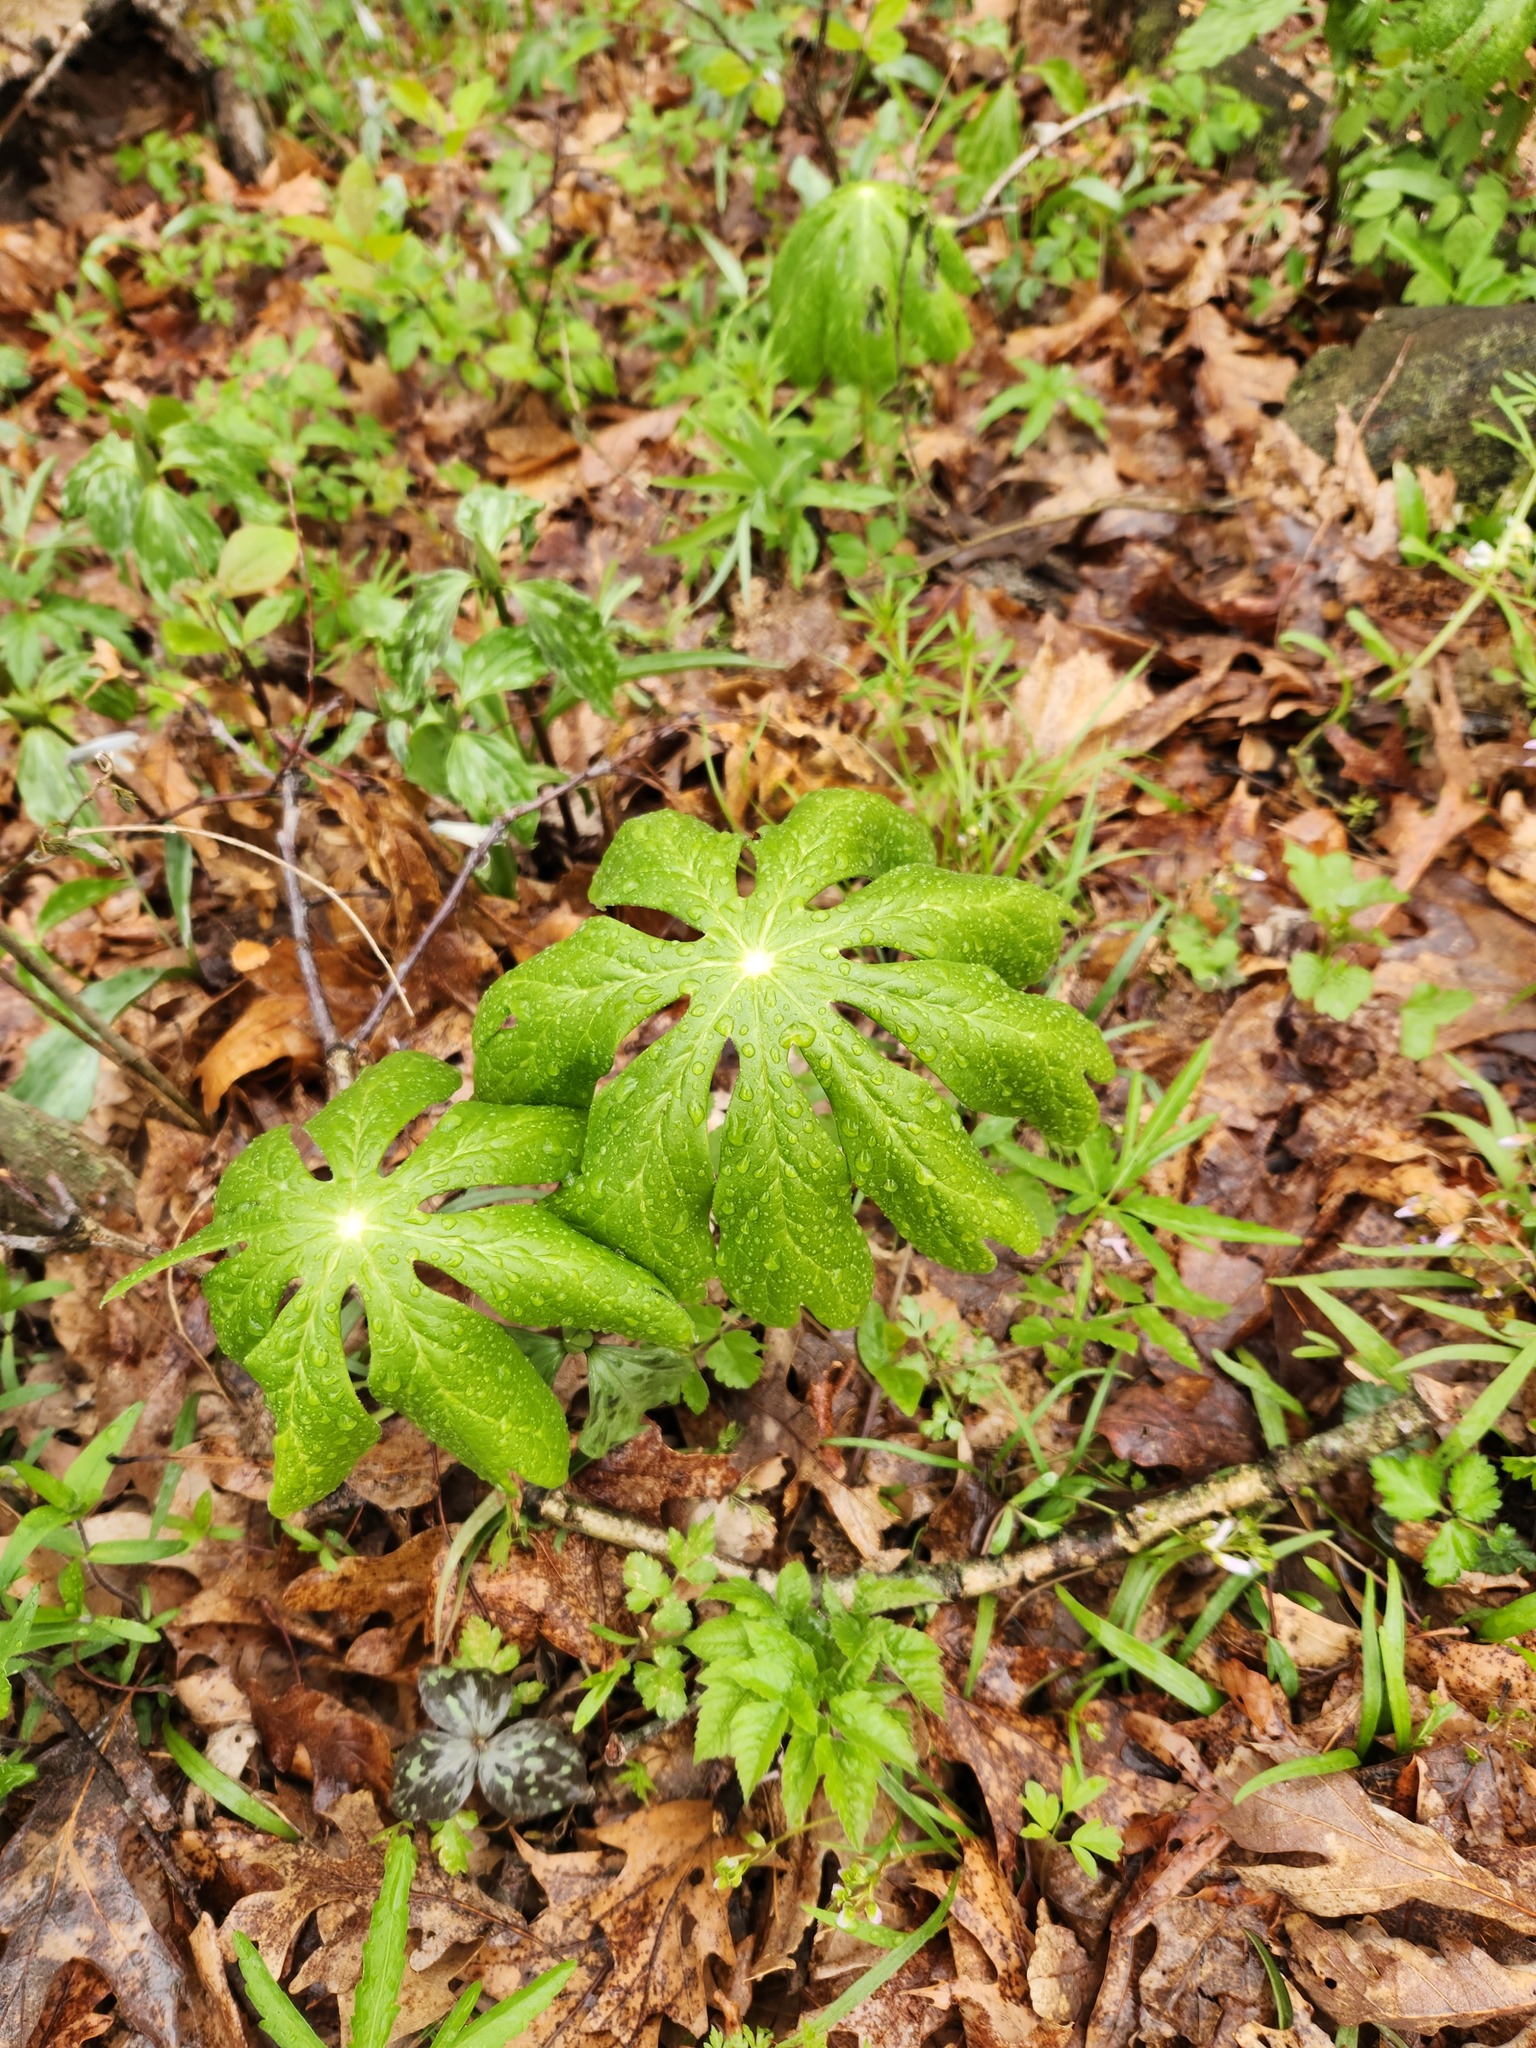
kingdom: Plantae
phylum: Tracheophyta
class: Magnoliopsida
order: Ranunculales
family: Berberidaceae
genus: Podophyllum
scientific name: Podophyllum peltatum
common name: Wild mandrake
